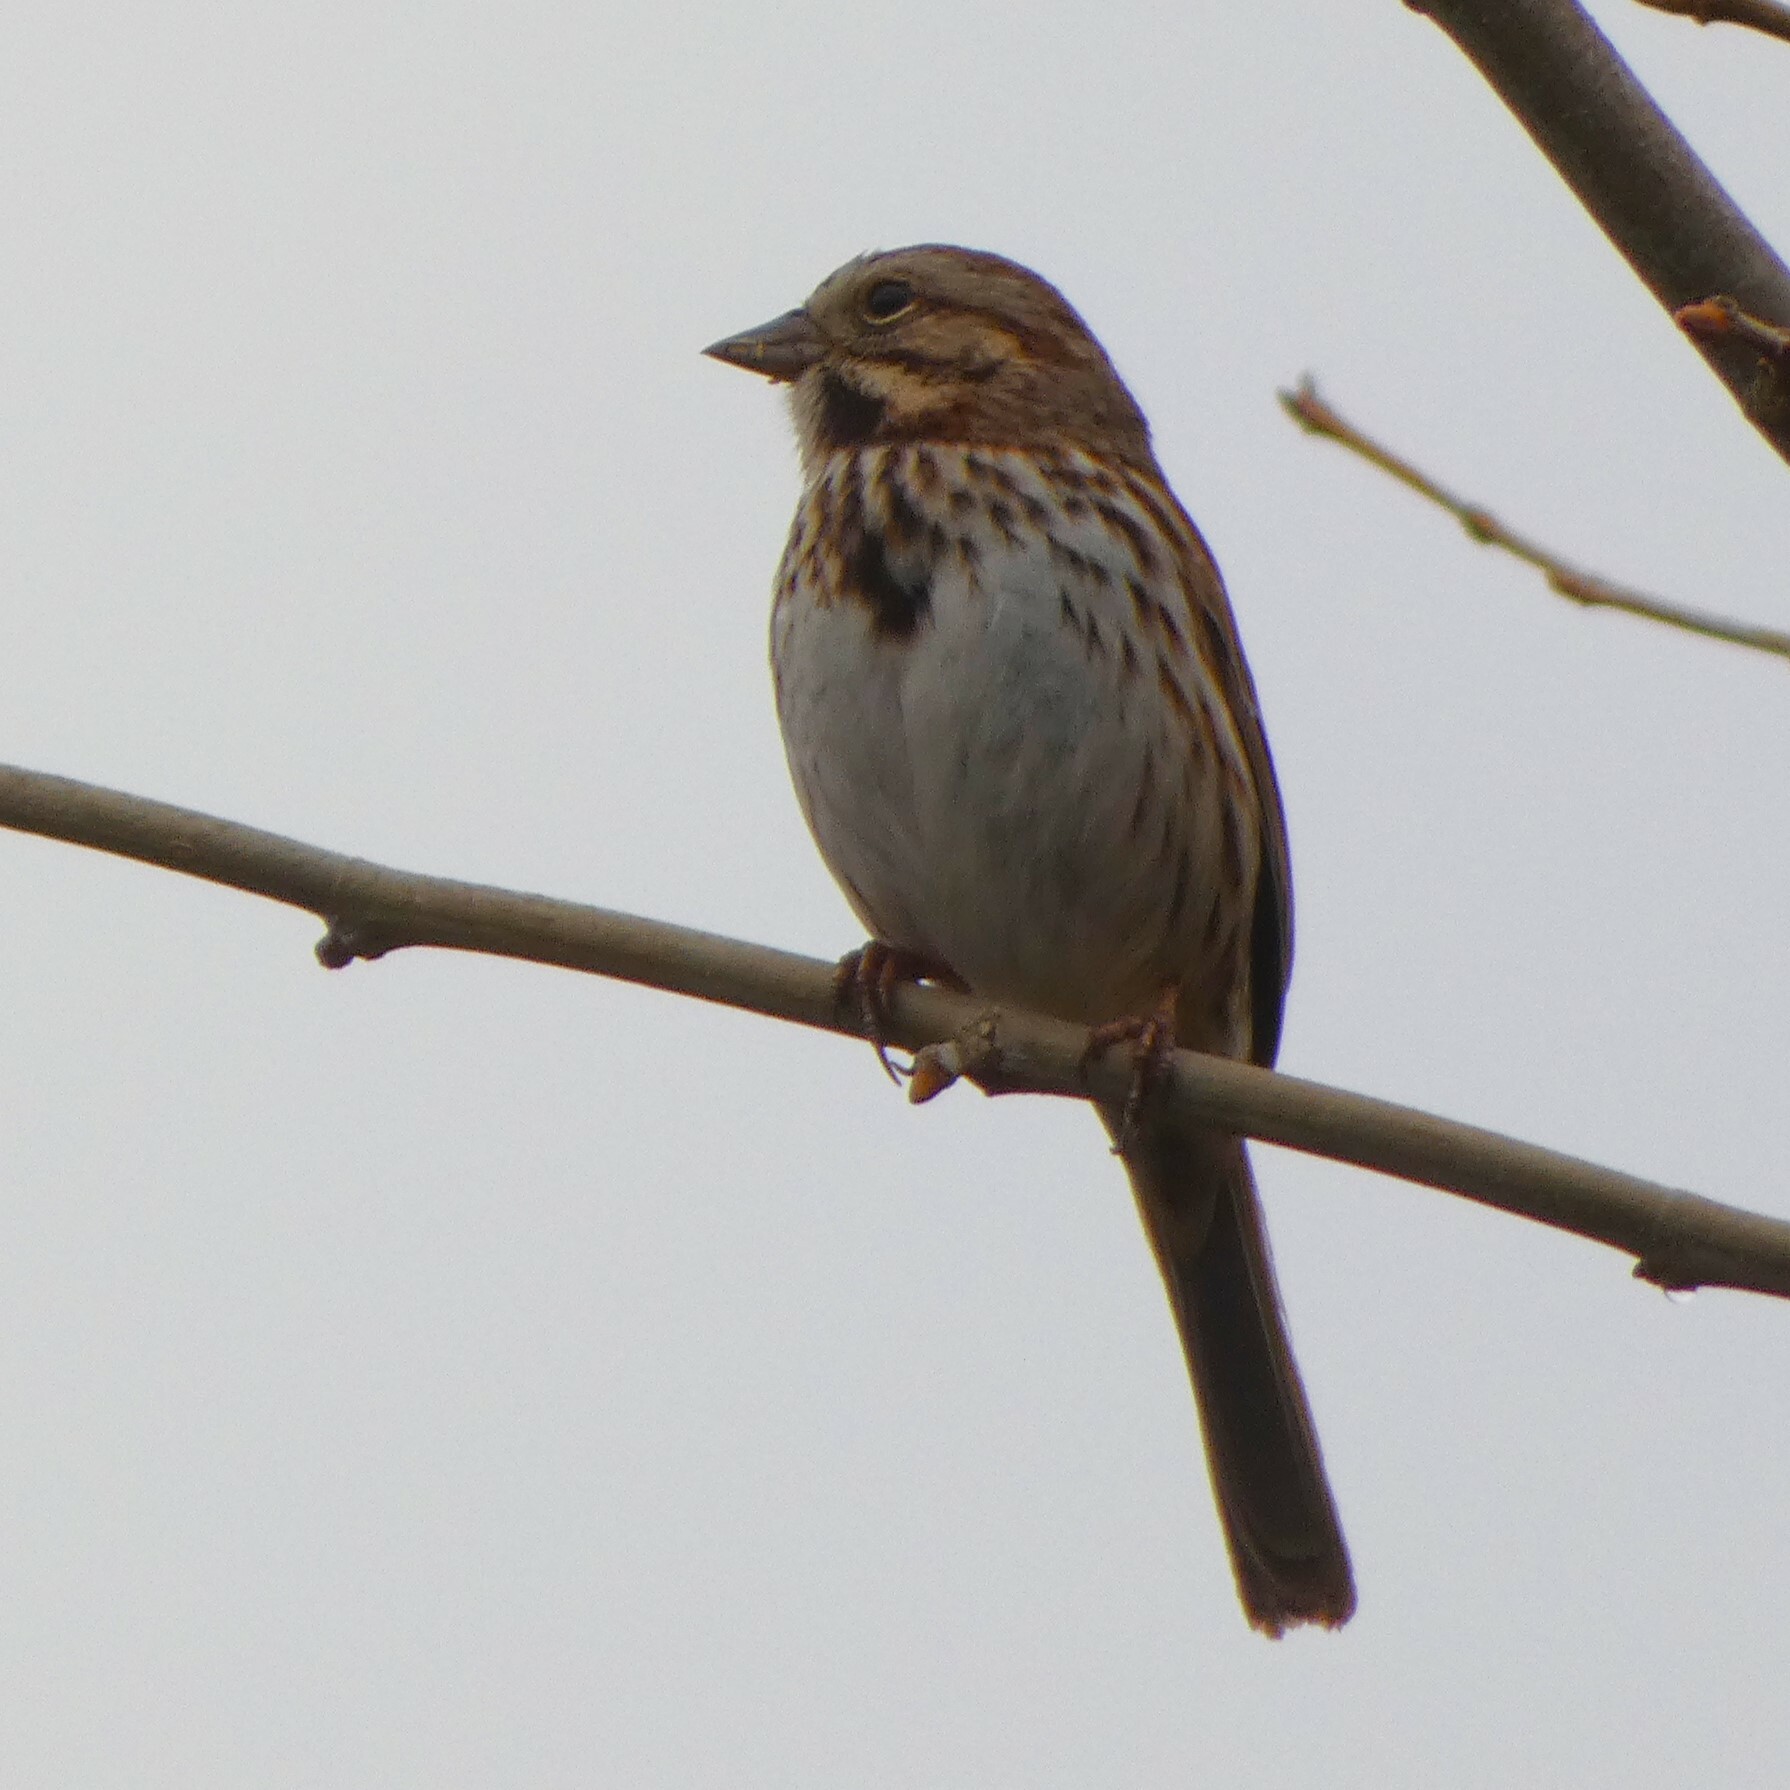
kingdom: Animalia
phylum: Chordata
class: Aves
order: Passeriformes
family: Passerellidae
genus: Melospiza
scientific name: Melospiza melodia
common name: Song sparrow
